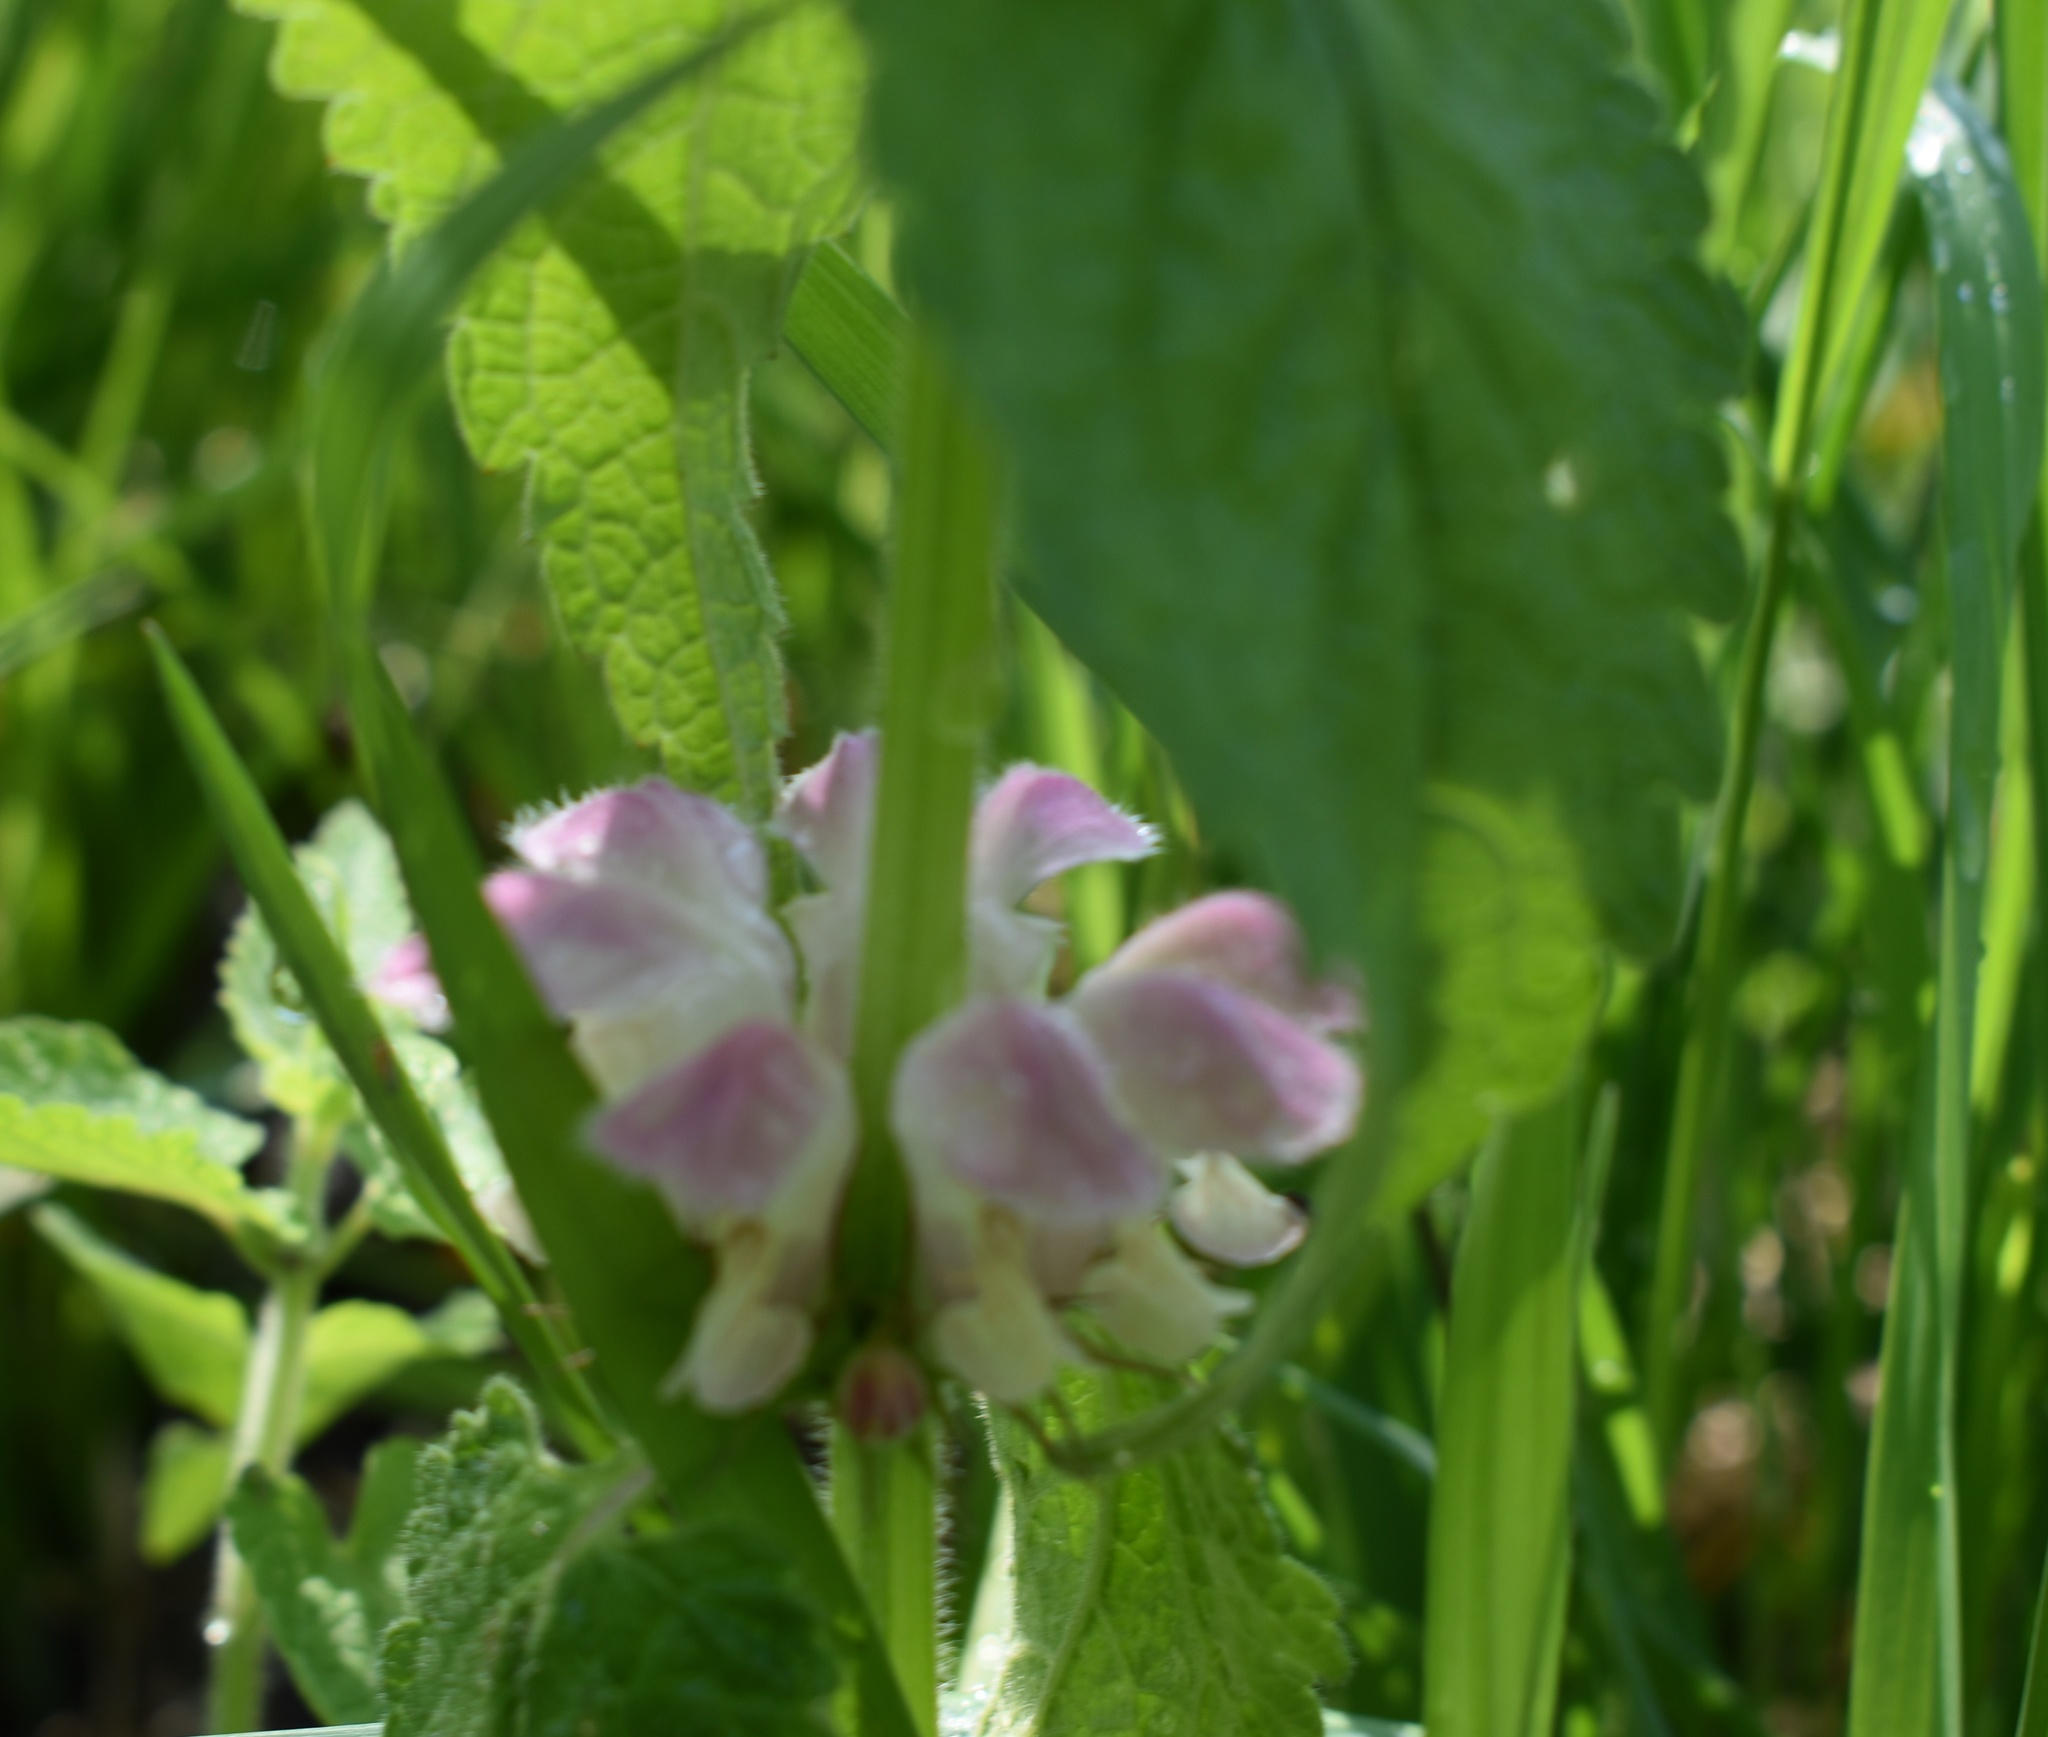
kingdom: Plantae
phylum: Tracheophyta
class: Magnoliopsida
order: Lamiales
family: Lamiaceae
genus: Lamium
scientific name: Lamium album
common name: White dead-nettle
